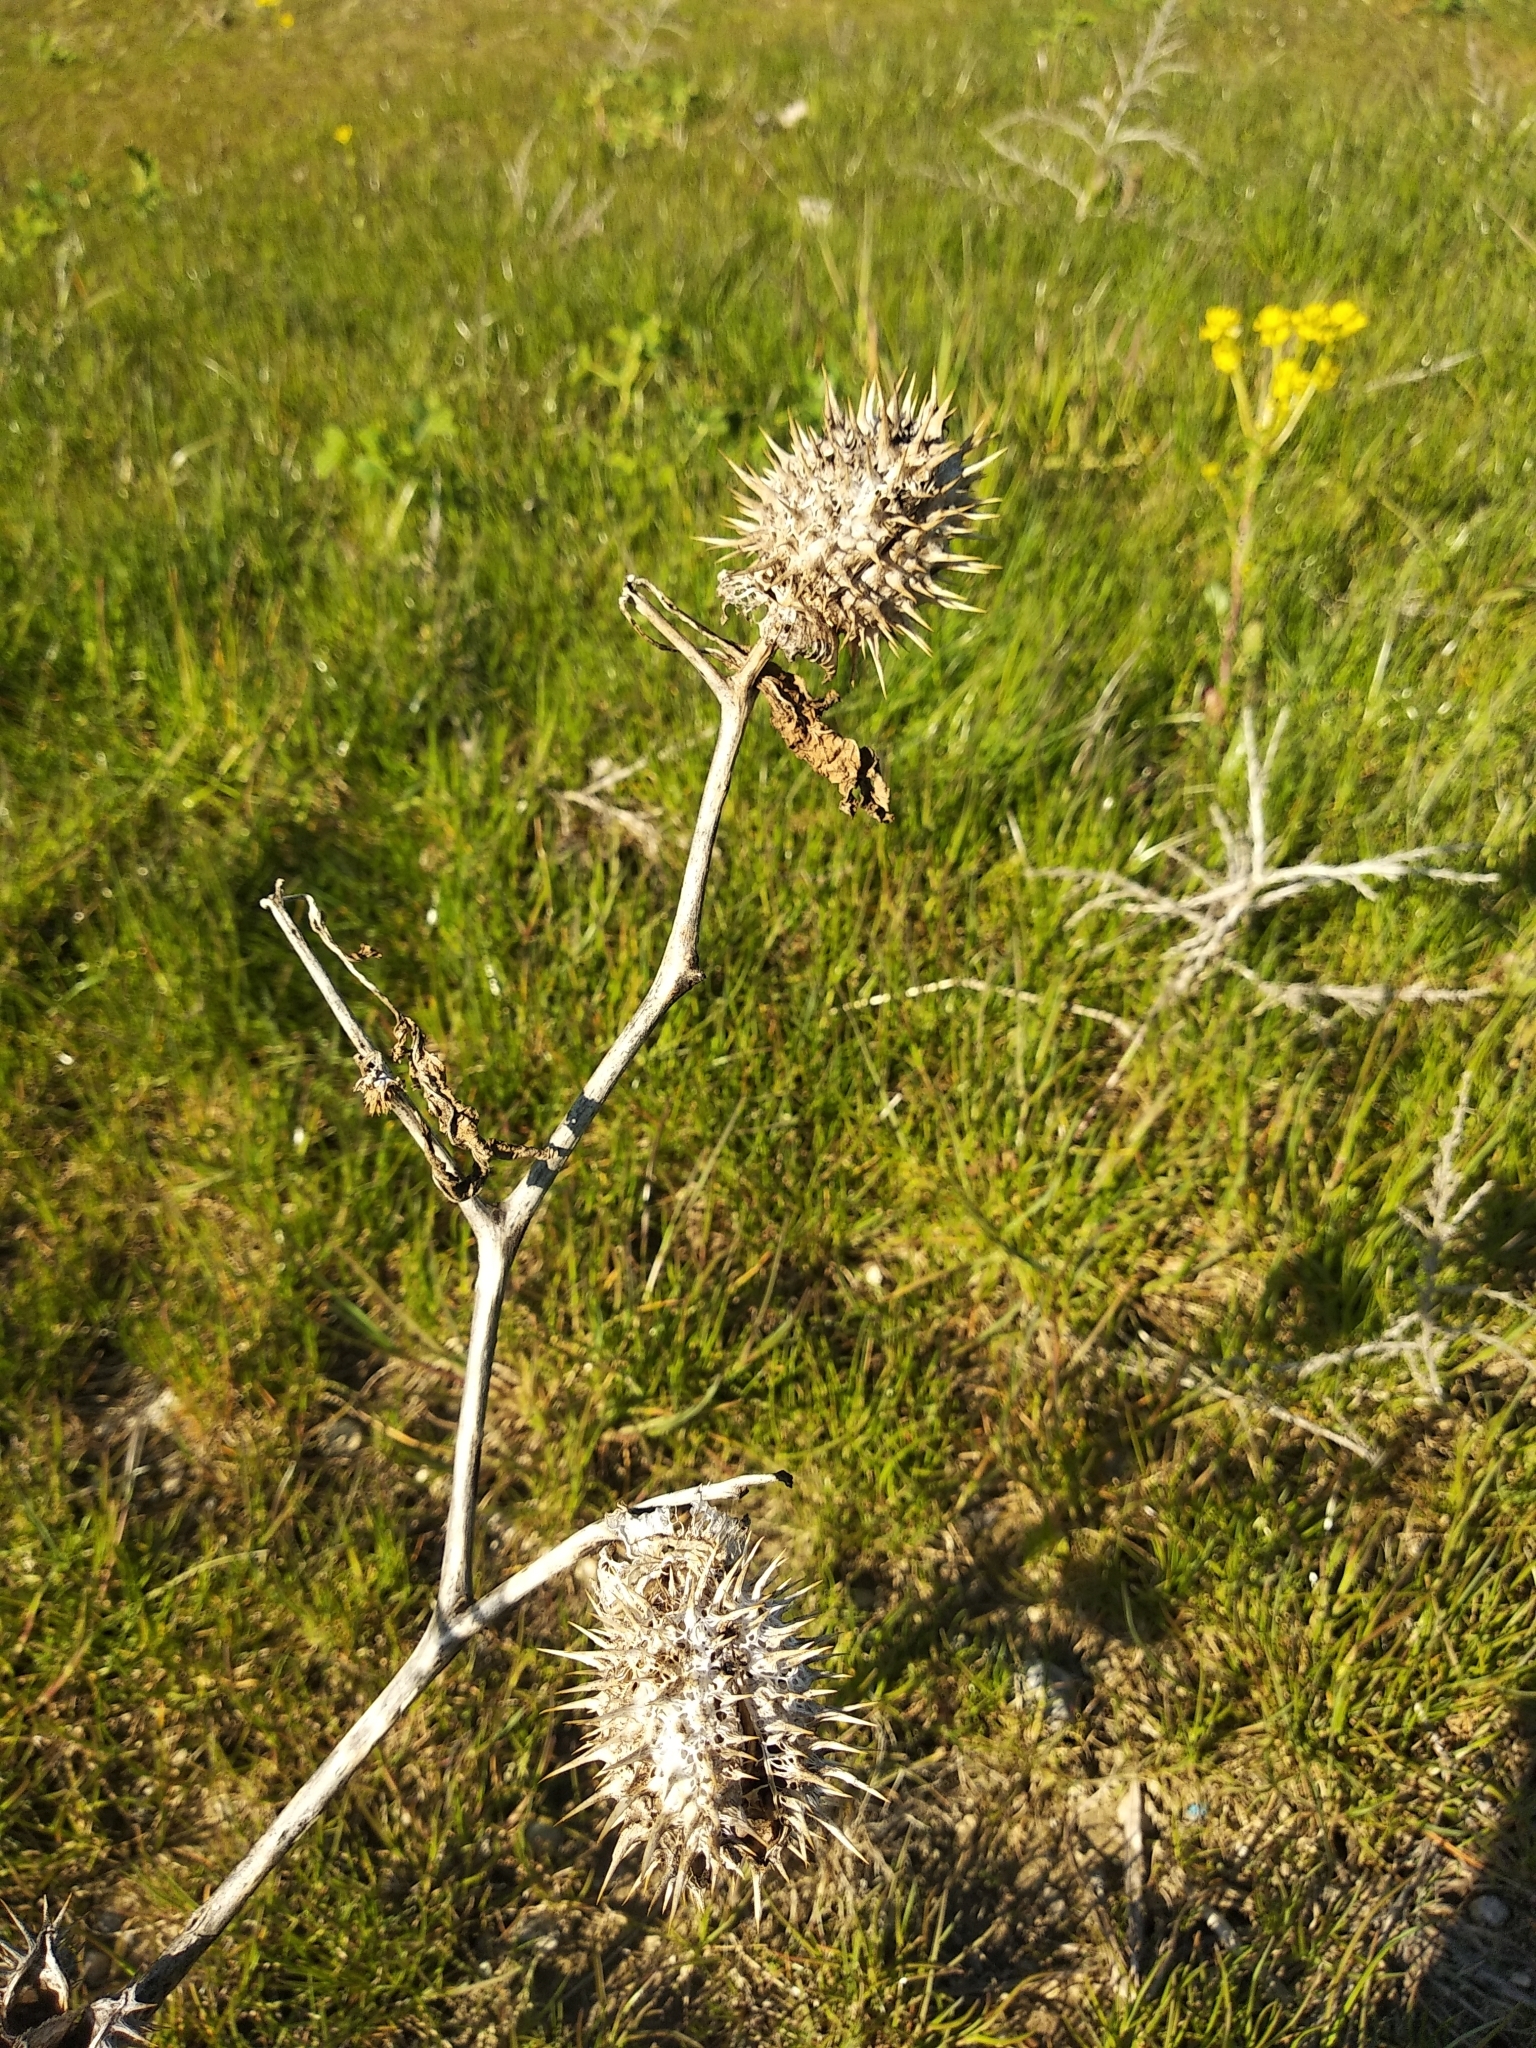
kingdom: Plantae
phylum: Tracheophyta
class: Magnoliopsida
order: Solanales
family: Solanaceae
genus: Datura
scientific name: Datura stramonium
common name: Thorn-apple
